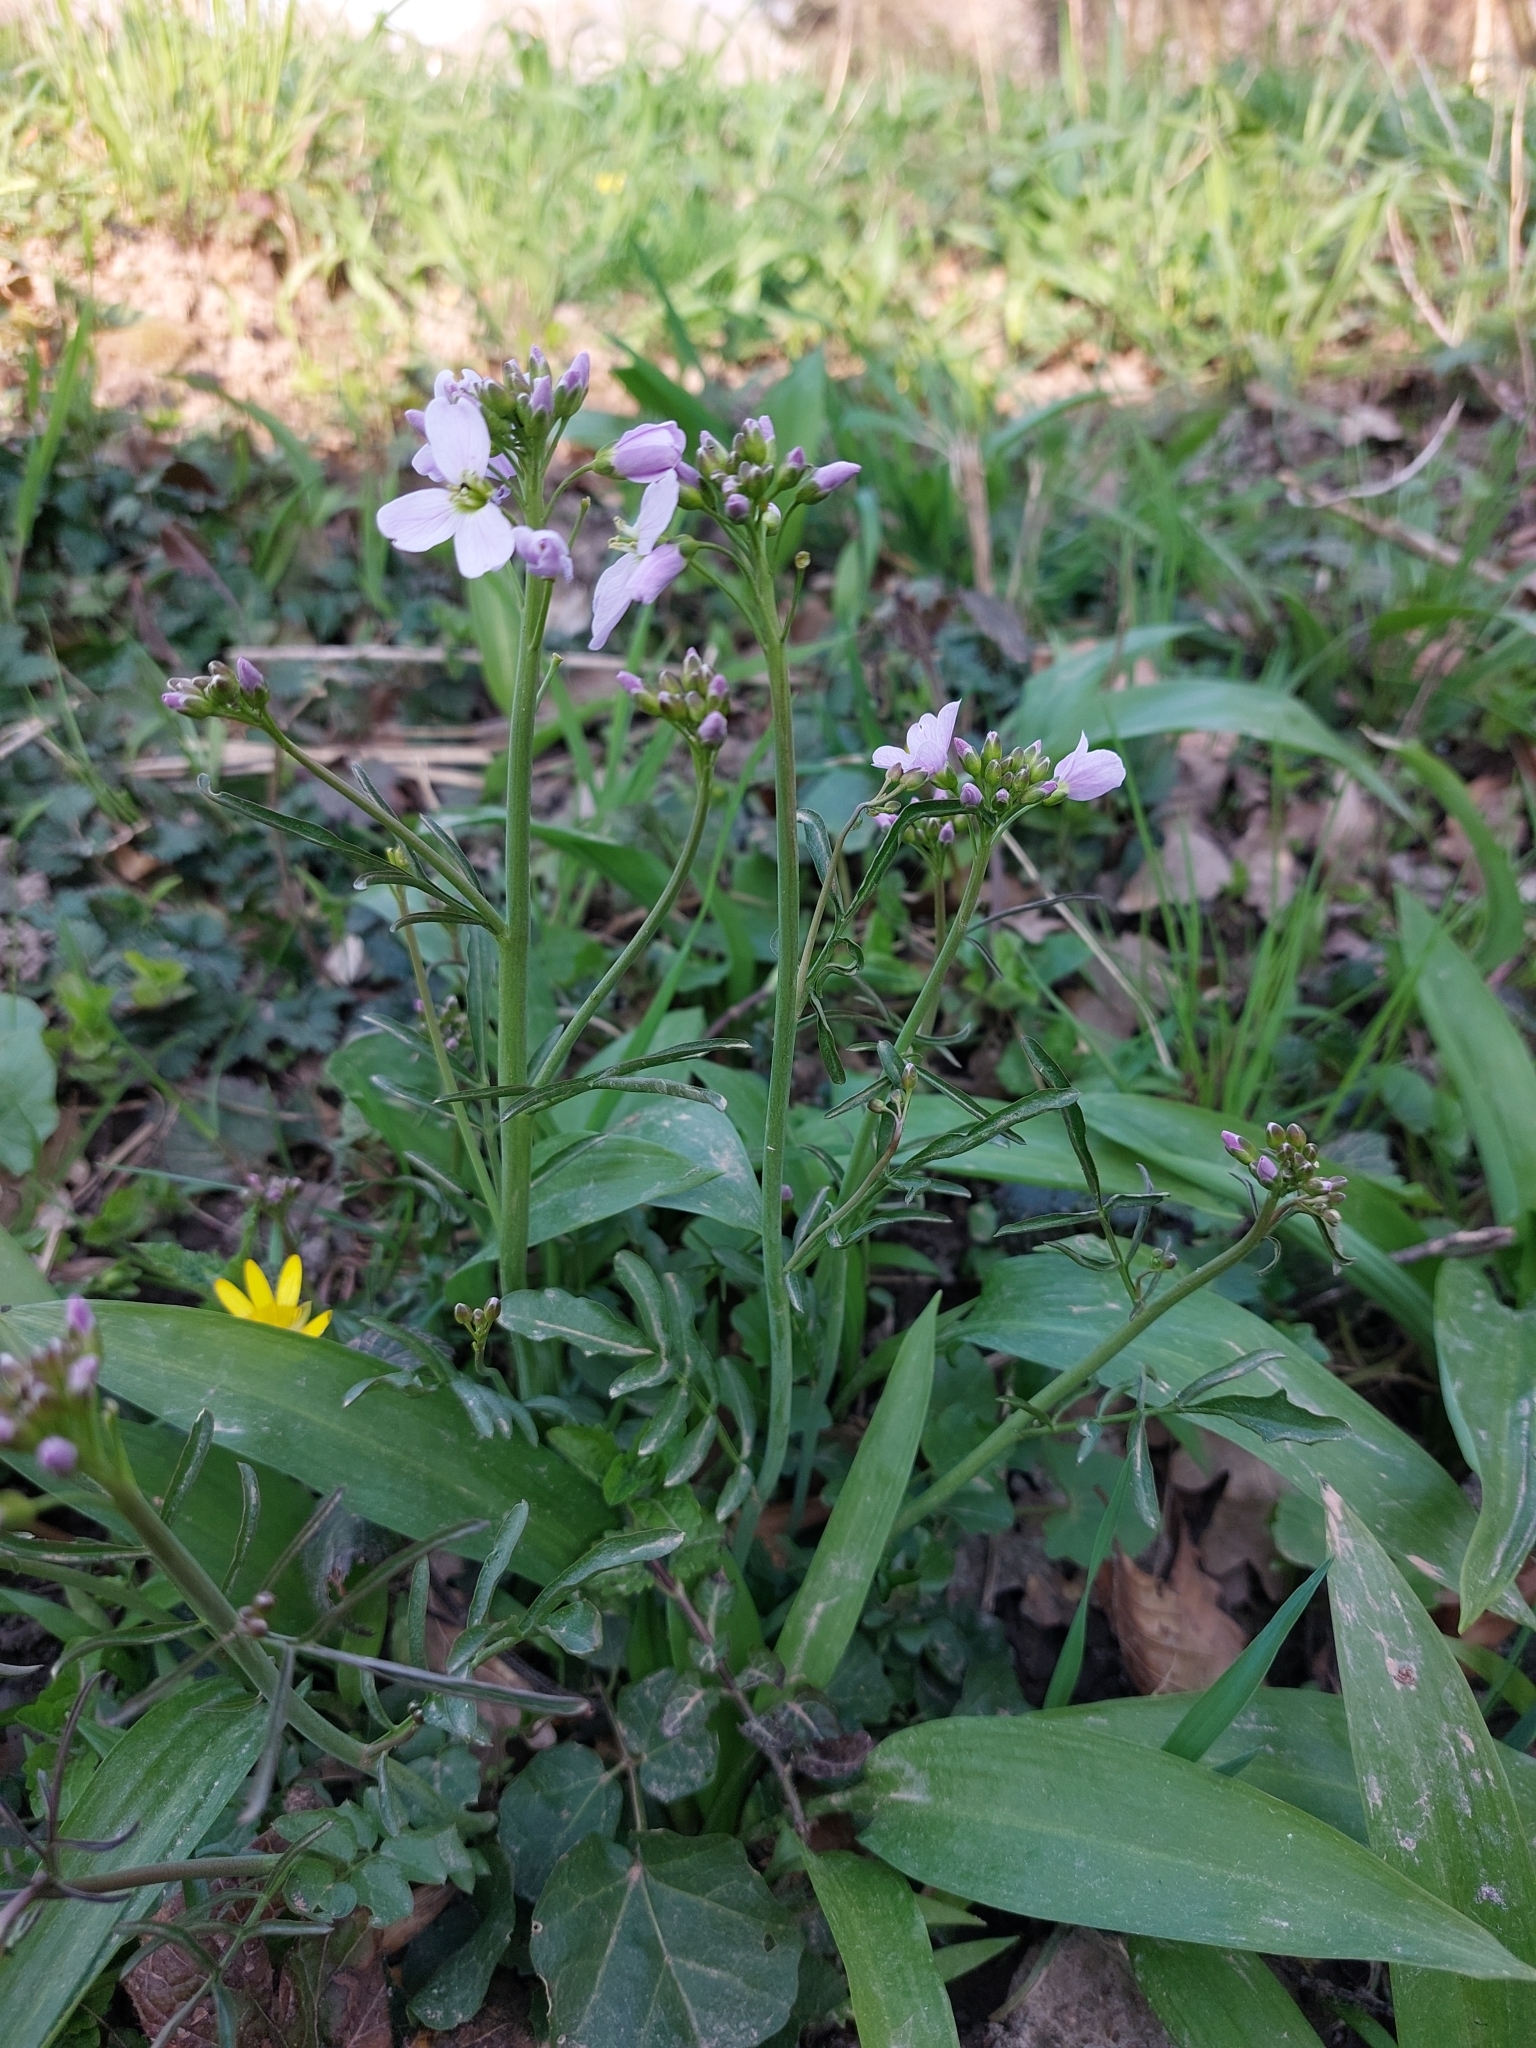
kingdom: Plantae
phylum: Tracheophyta
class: Magnoliopsida
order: Brassicales
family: Brassicaceae
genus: Cardamine
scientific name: Cardamine pratensis
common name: Cuckoo flower
